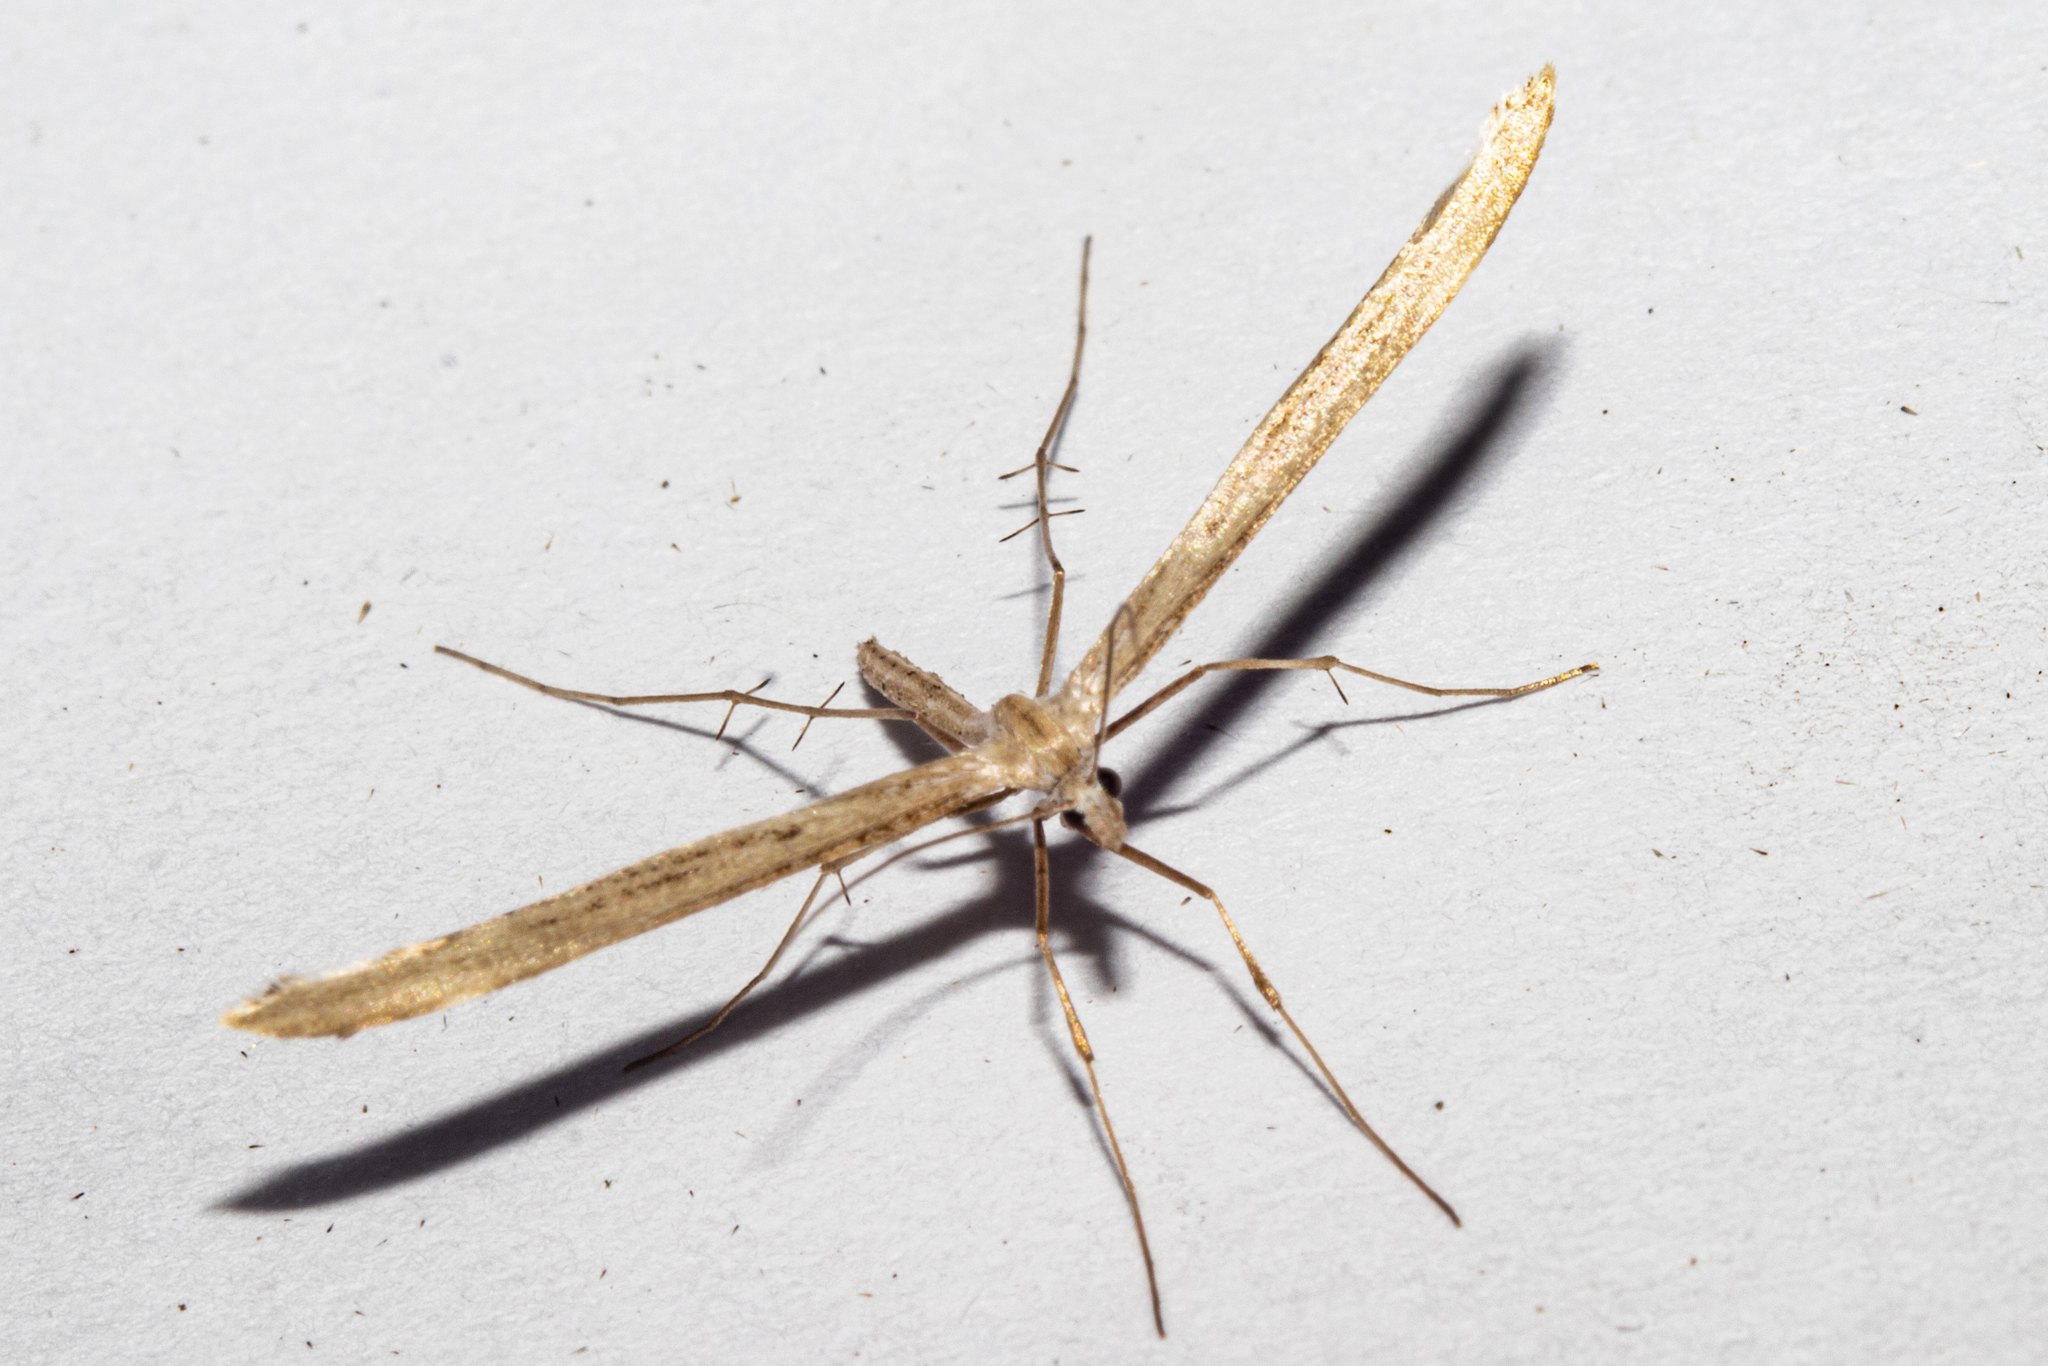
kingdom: Animalia
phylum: Arthropoda
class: Insecta
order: Lepidoptera
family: Pterophoridae
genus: Stenoptilia
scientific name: Stenoptilia orites
